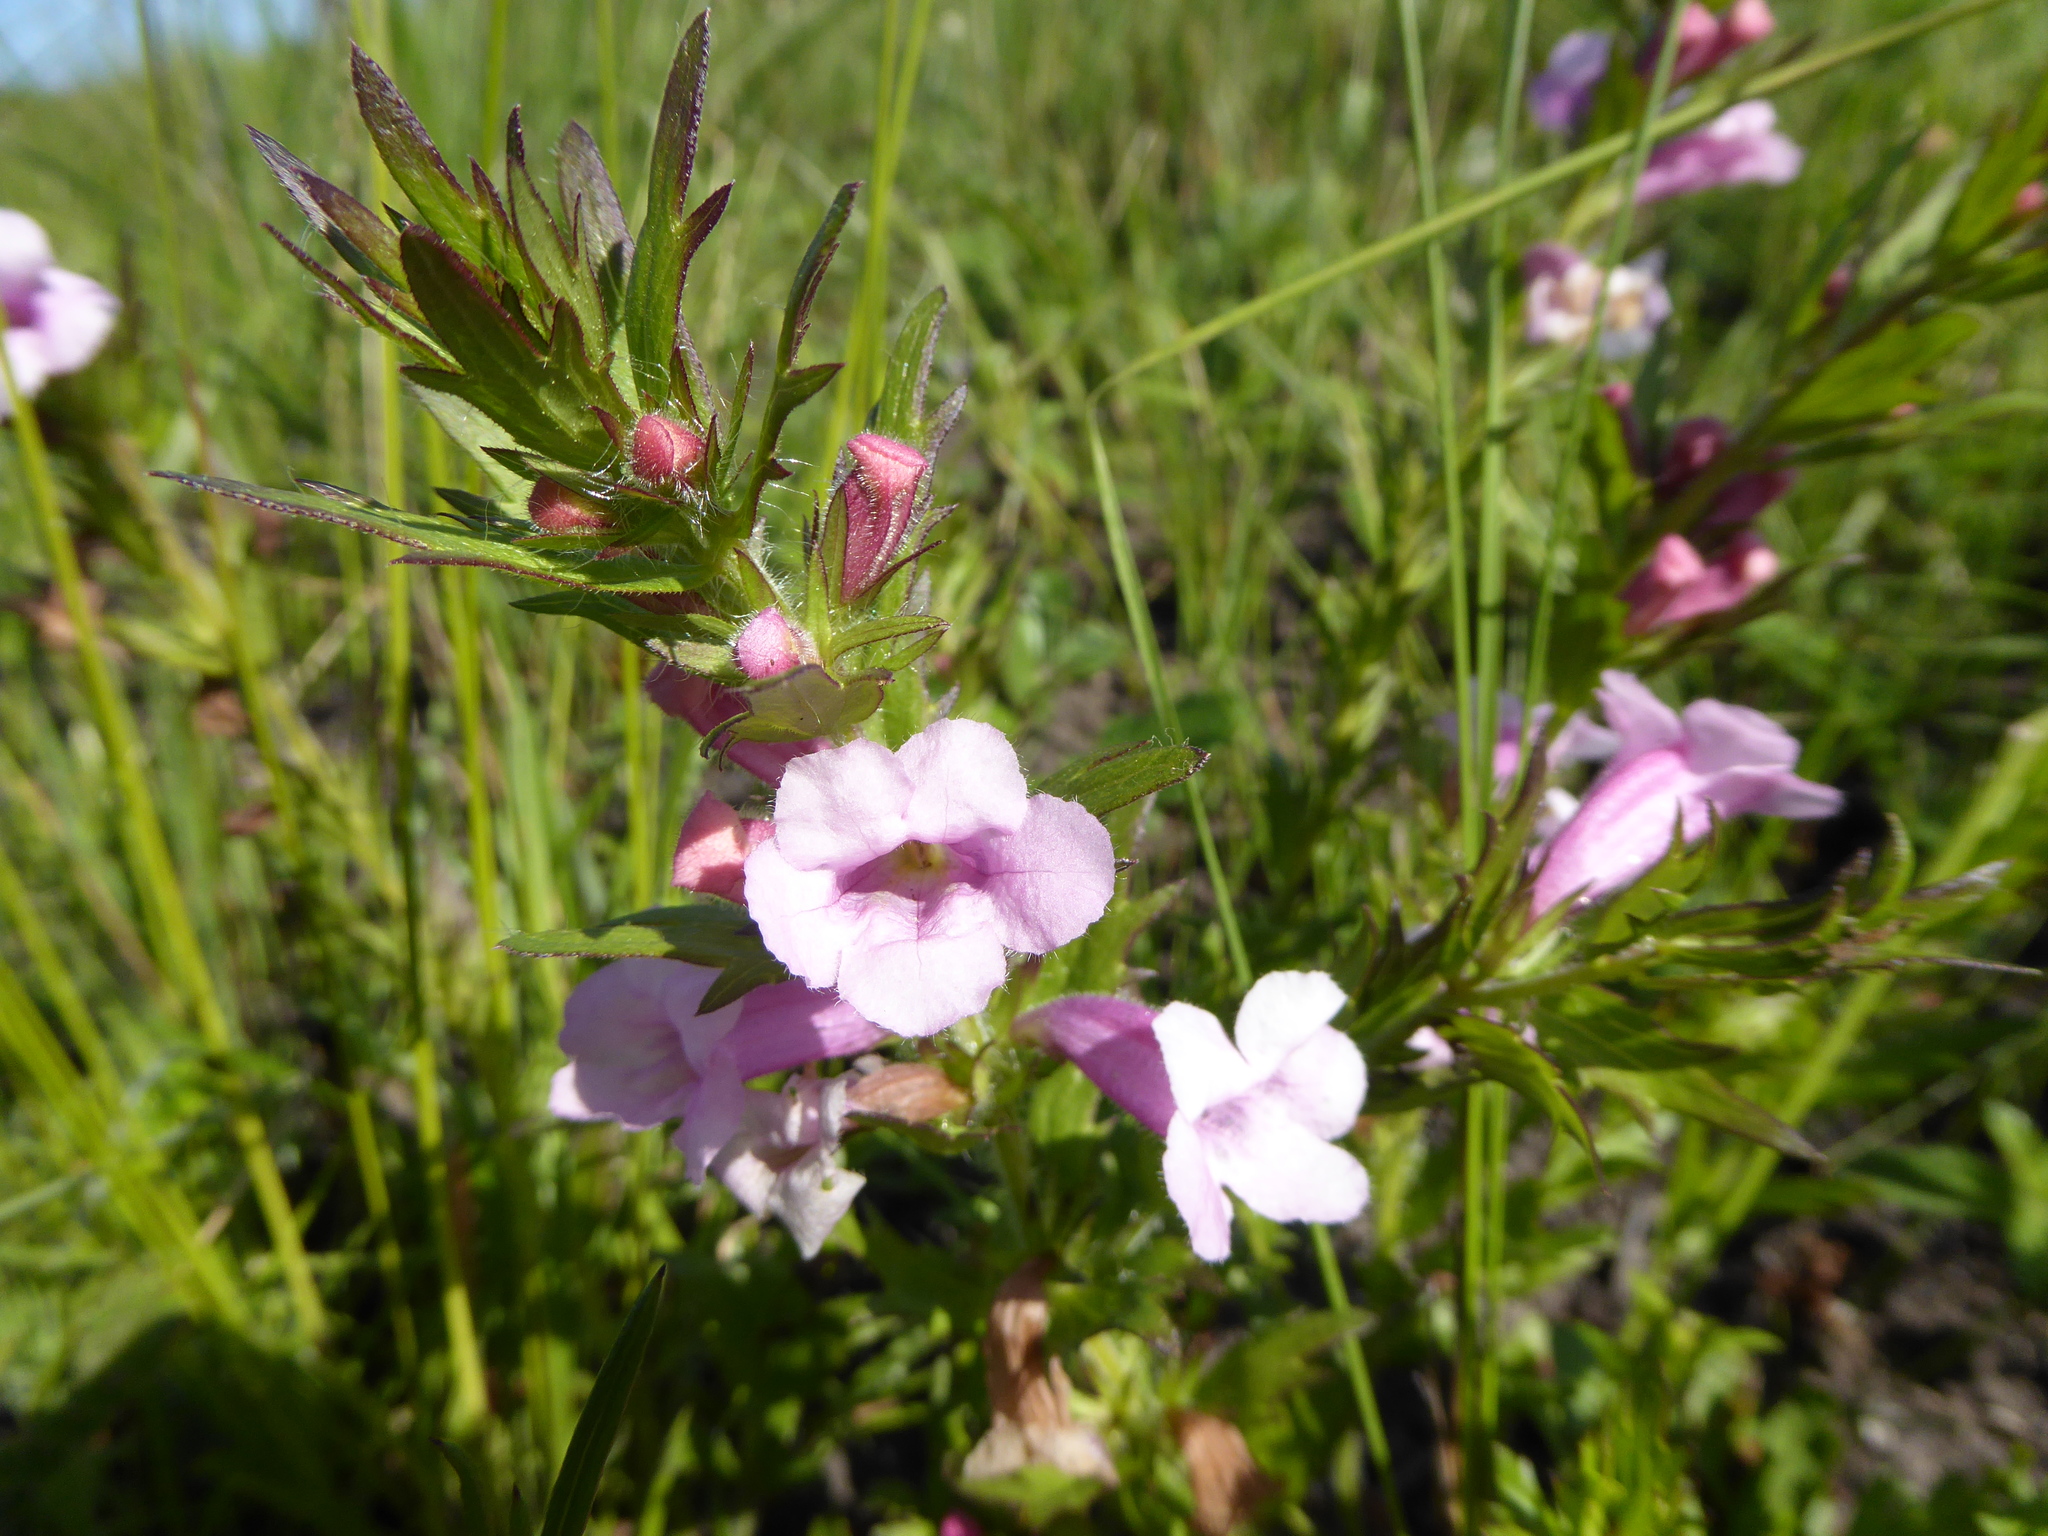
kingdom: Plantae
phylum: Tracheophyta
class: Magnoliopsida
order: Lamiales
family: Orobanchaceae
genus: Graderia
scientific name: Graderia scabra
